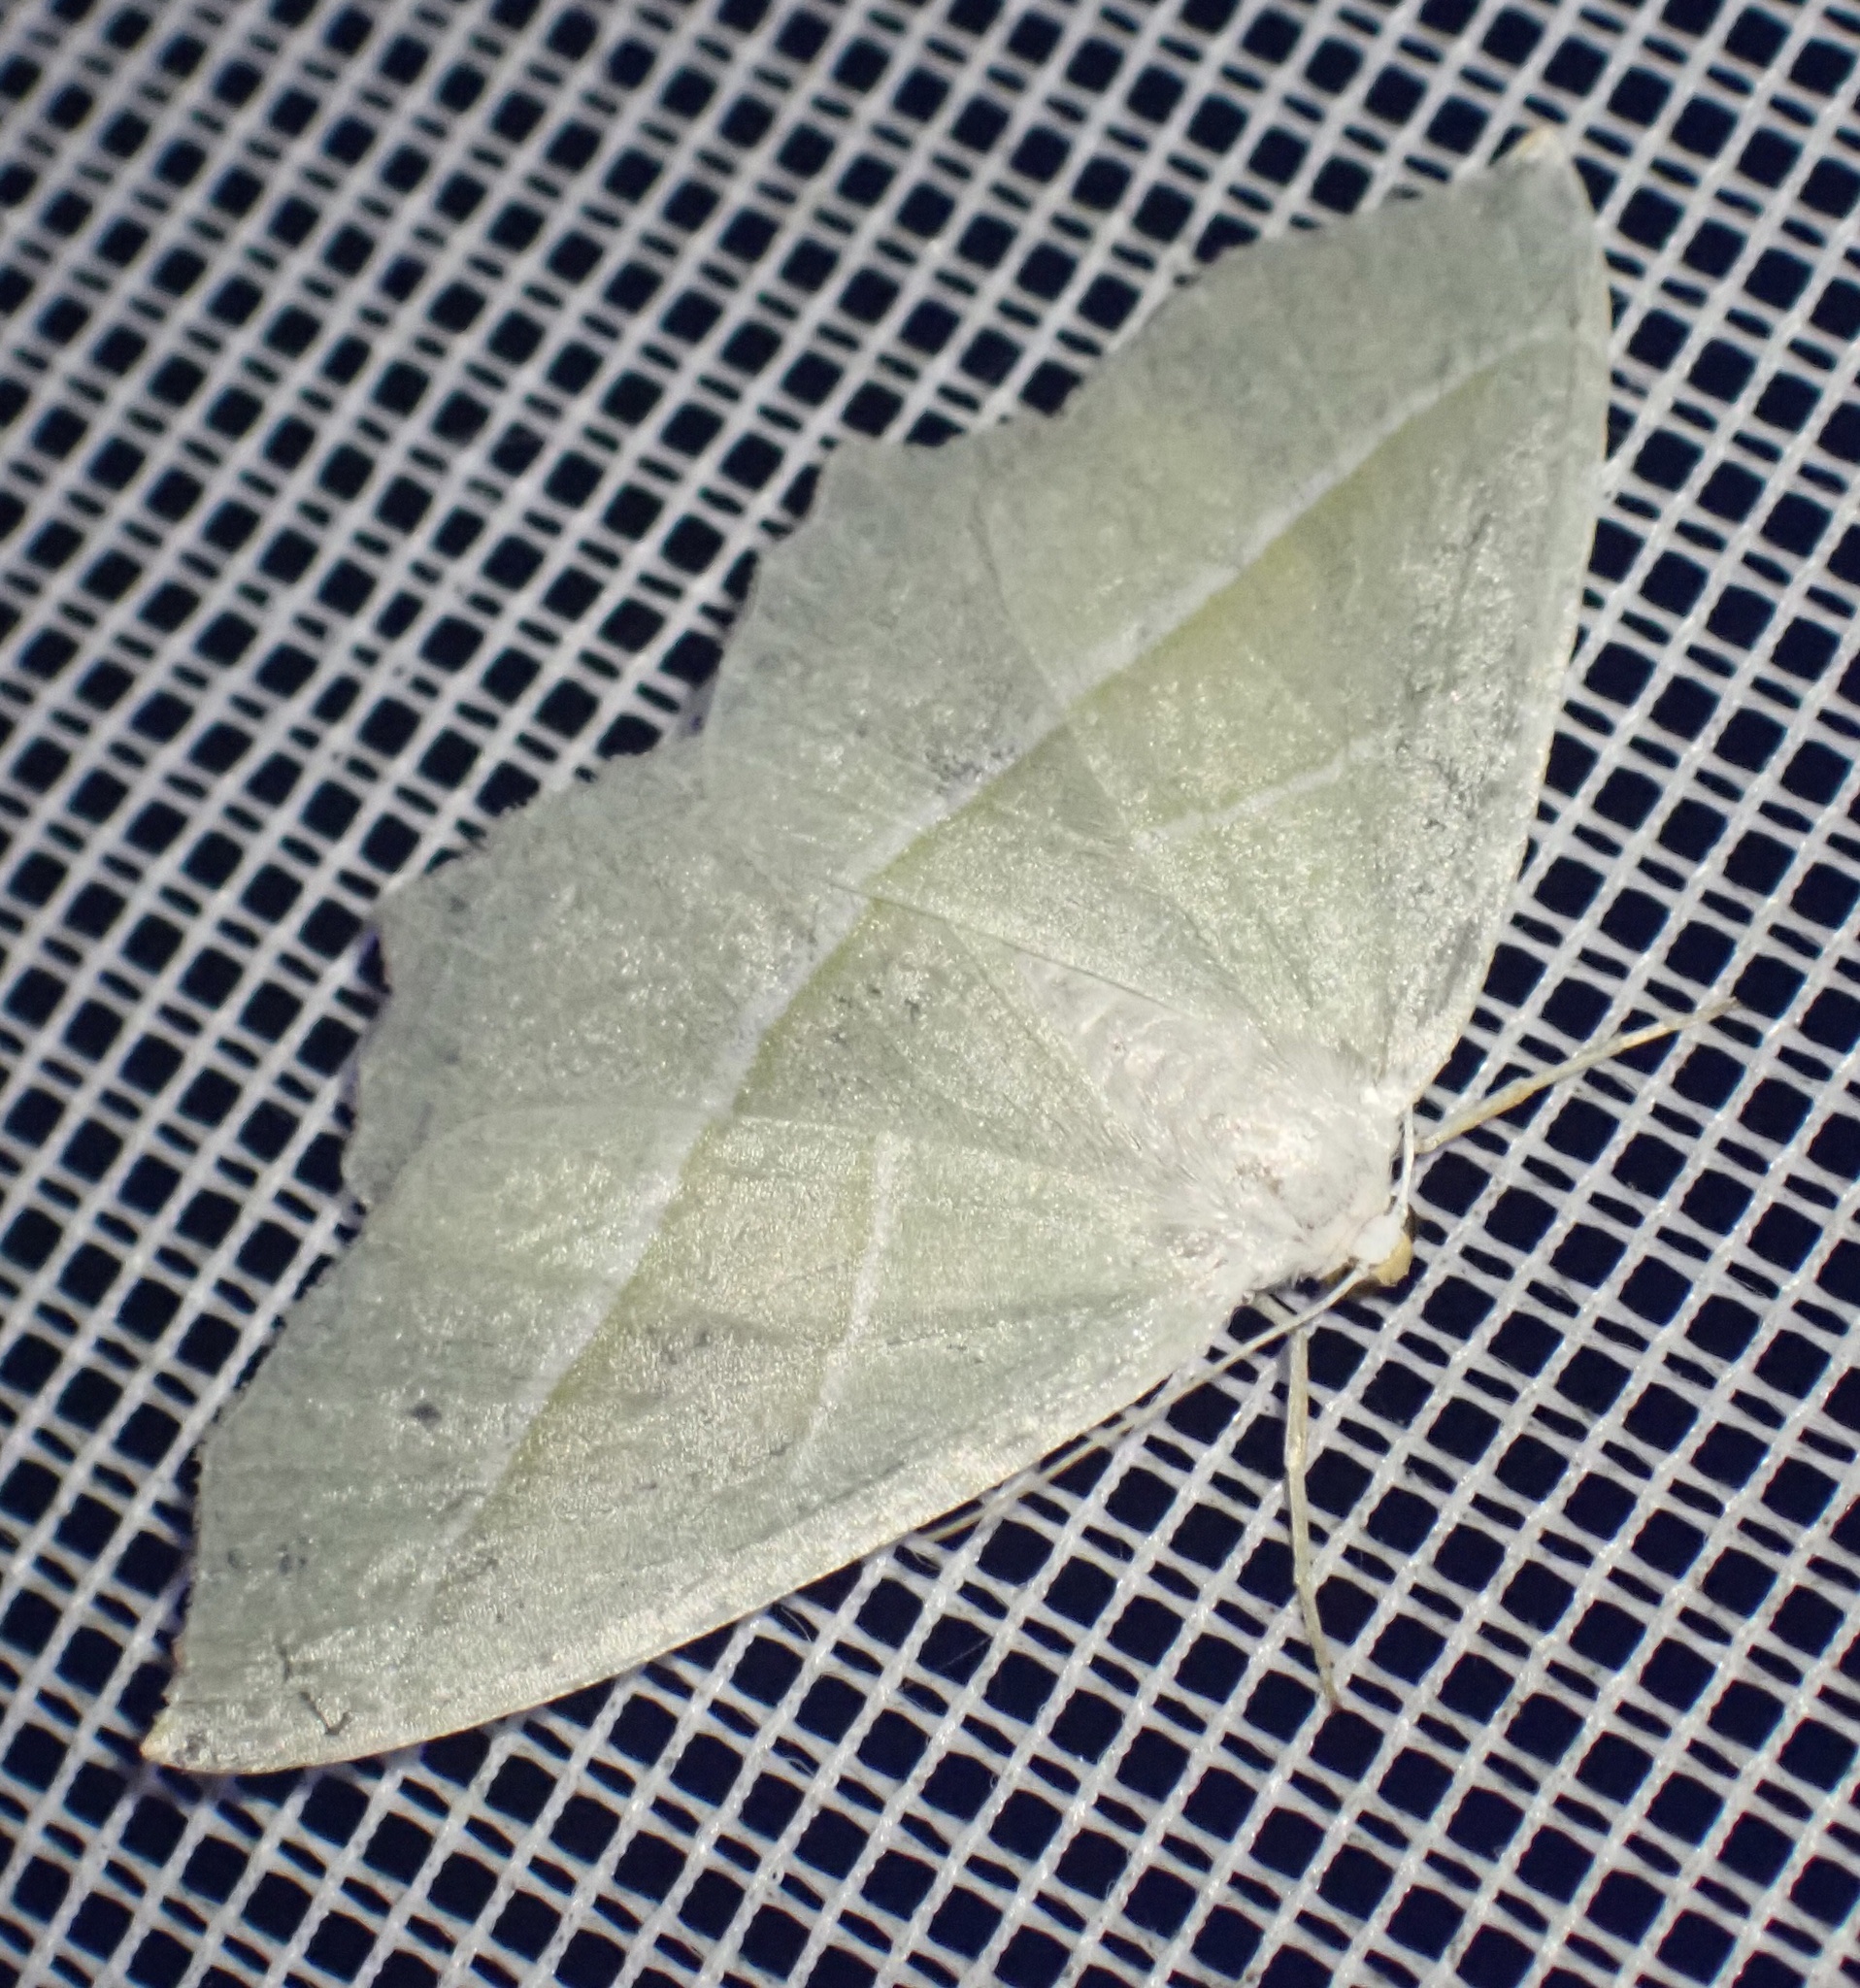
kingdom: Animalia
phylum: Arthropoda
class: Insecta
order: Lepidoptera
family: Geometridae
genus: Campaea
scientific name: Campaea margaritaria
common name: Light emerald
